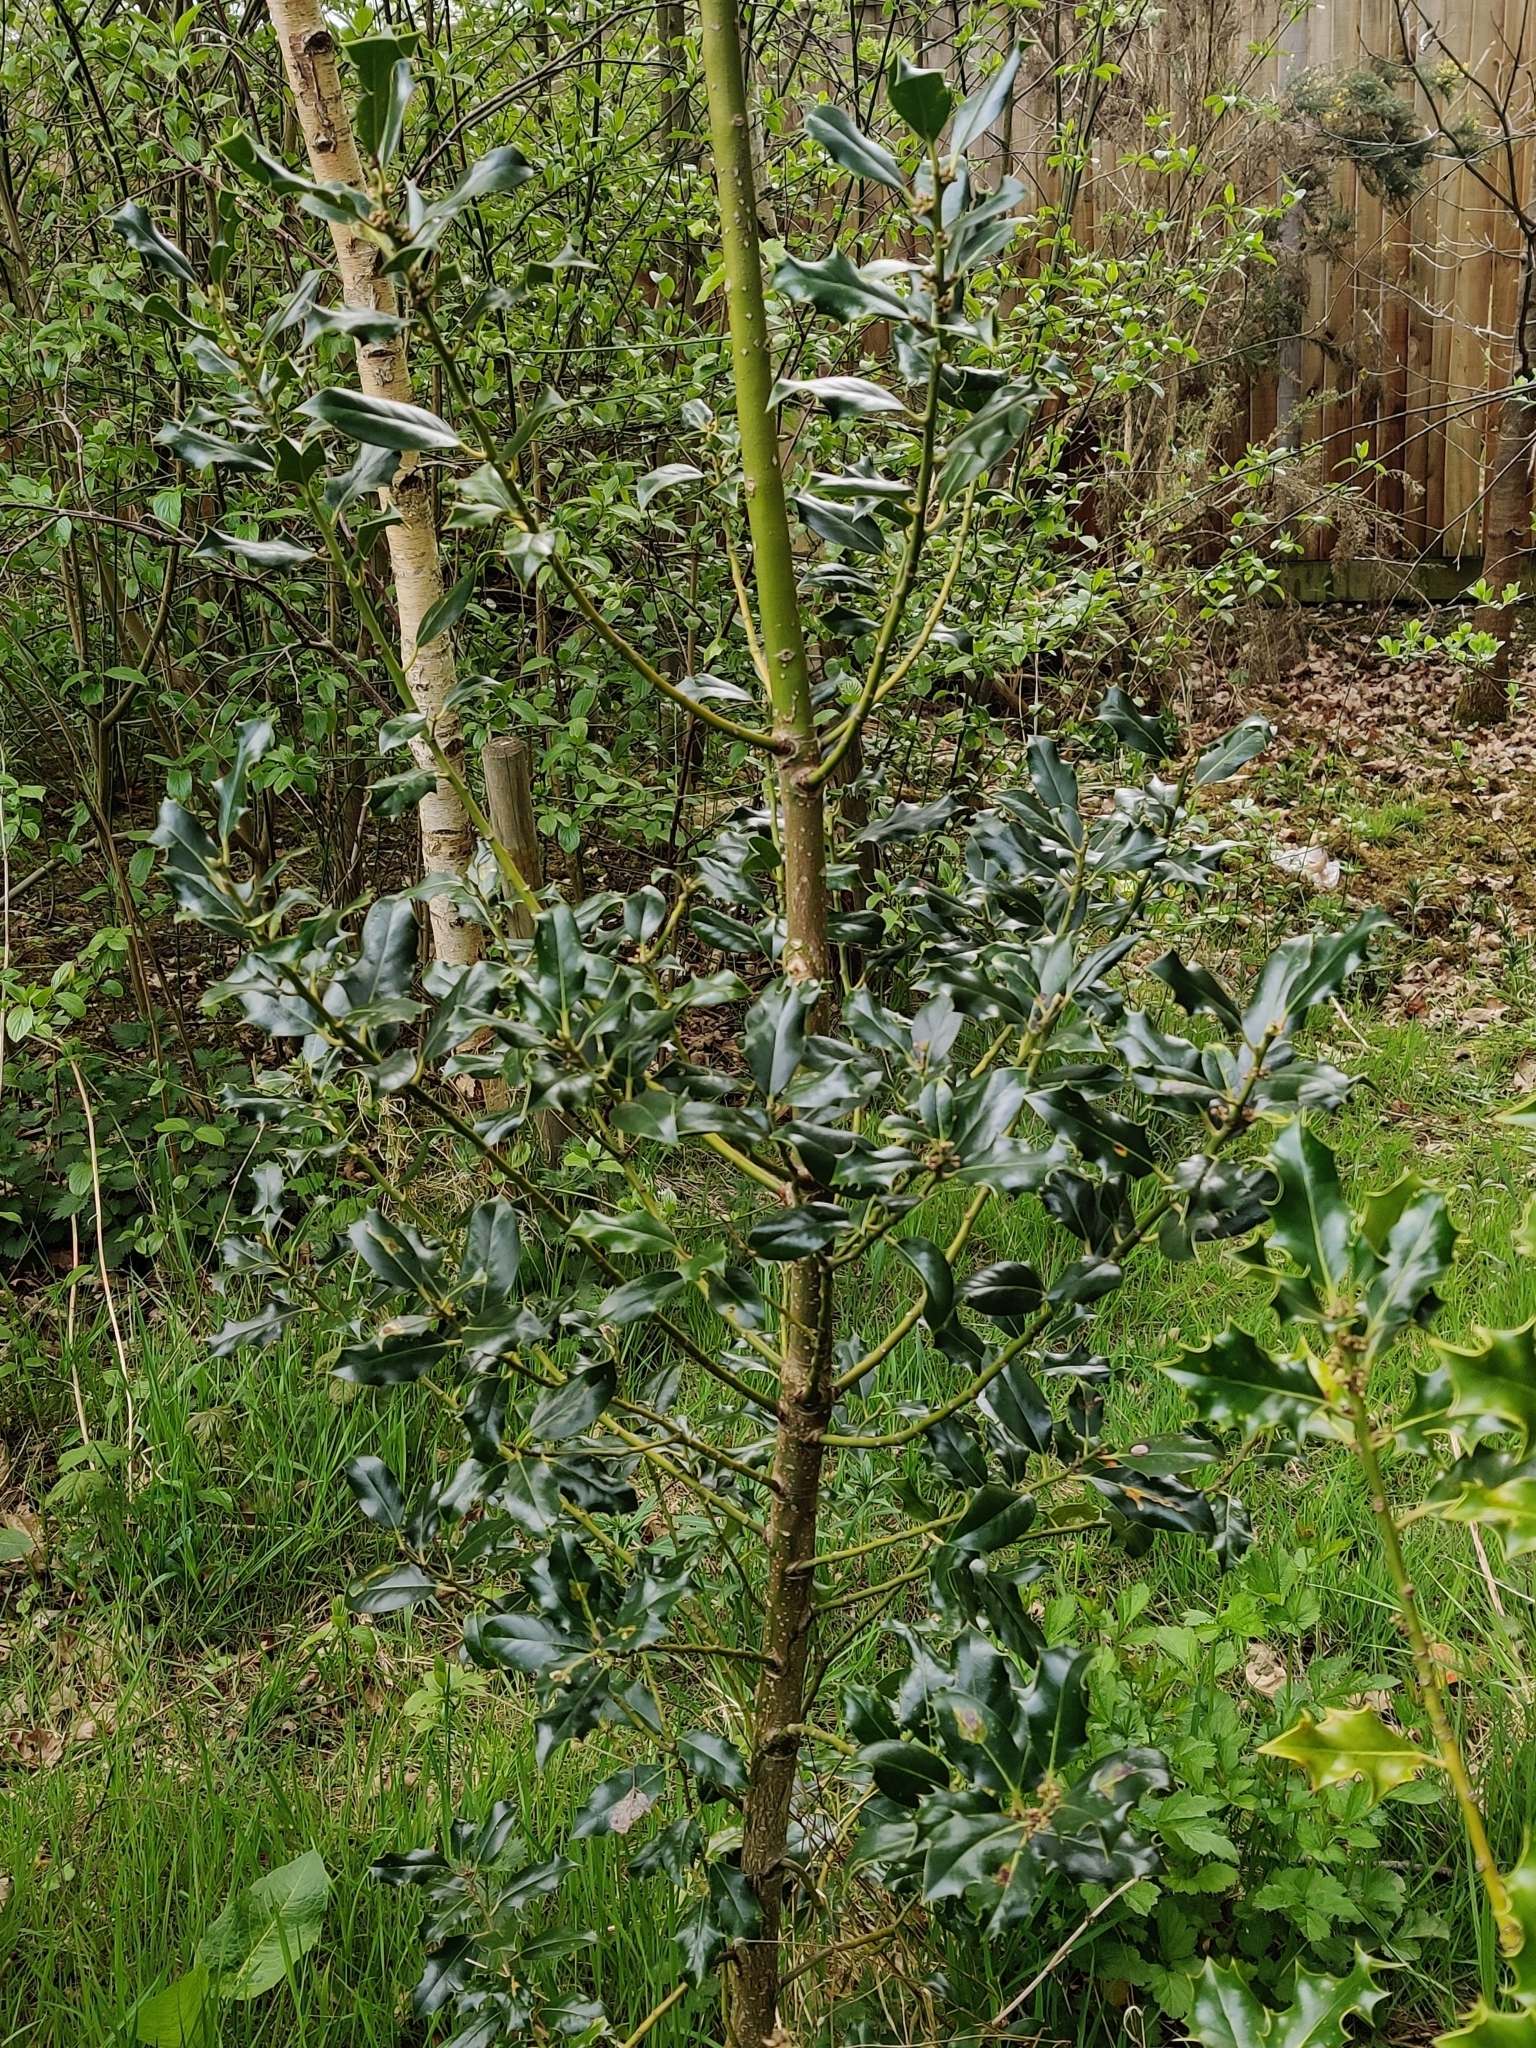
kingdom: Plantae
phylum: Tracheophyta
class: Magnoliopsida
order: Aquifoliales
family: Aquifoliaceae
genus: Ilex
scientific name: Ilex aquifolium
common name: English holly
